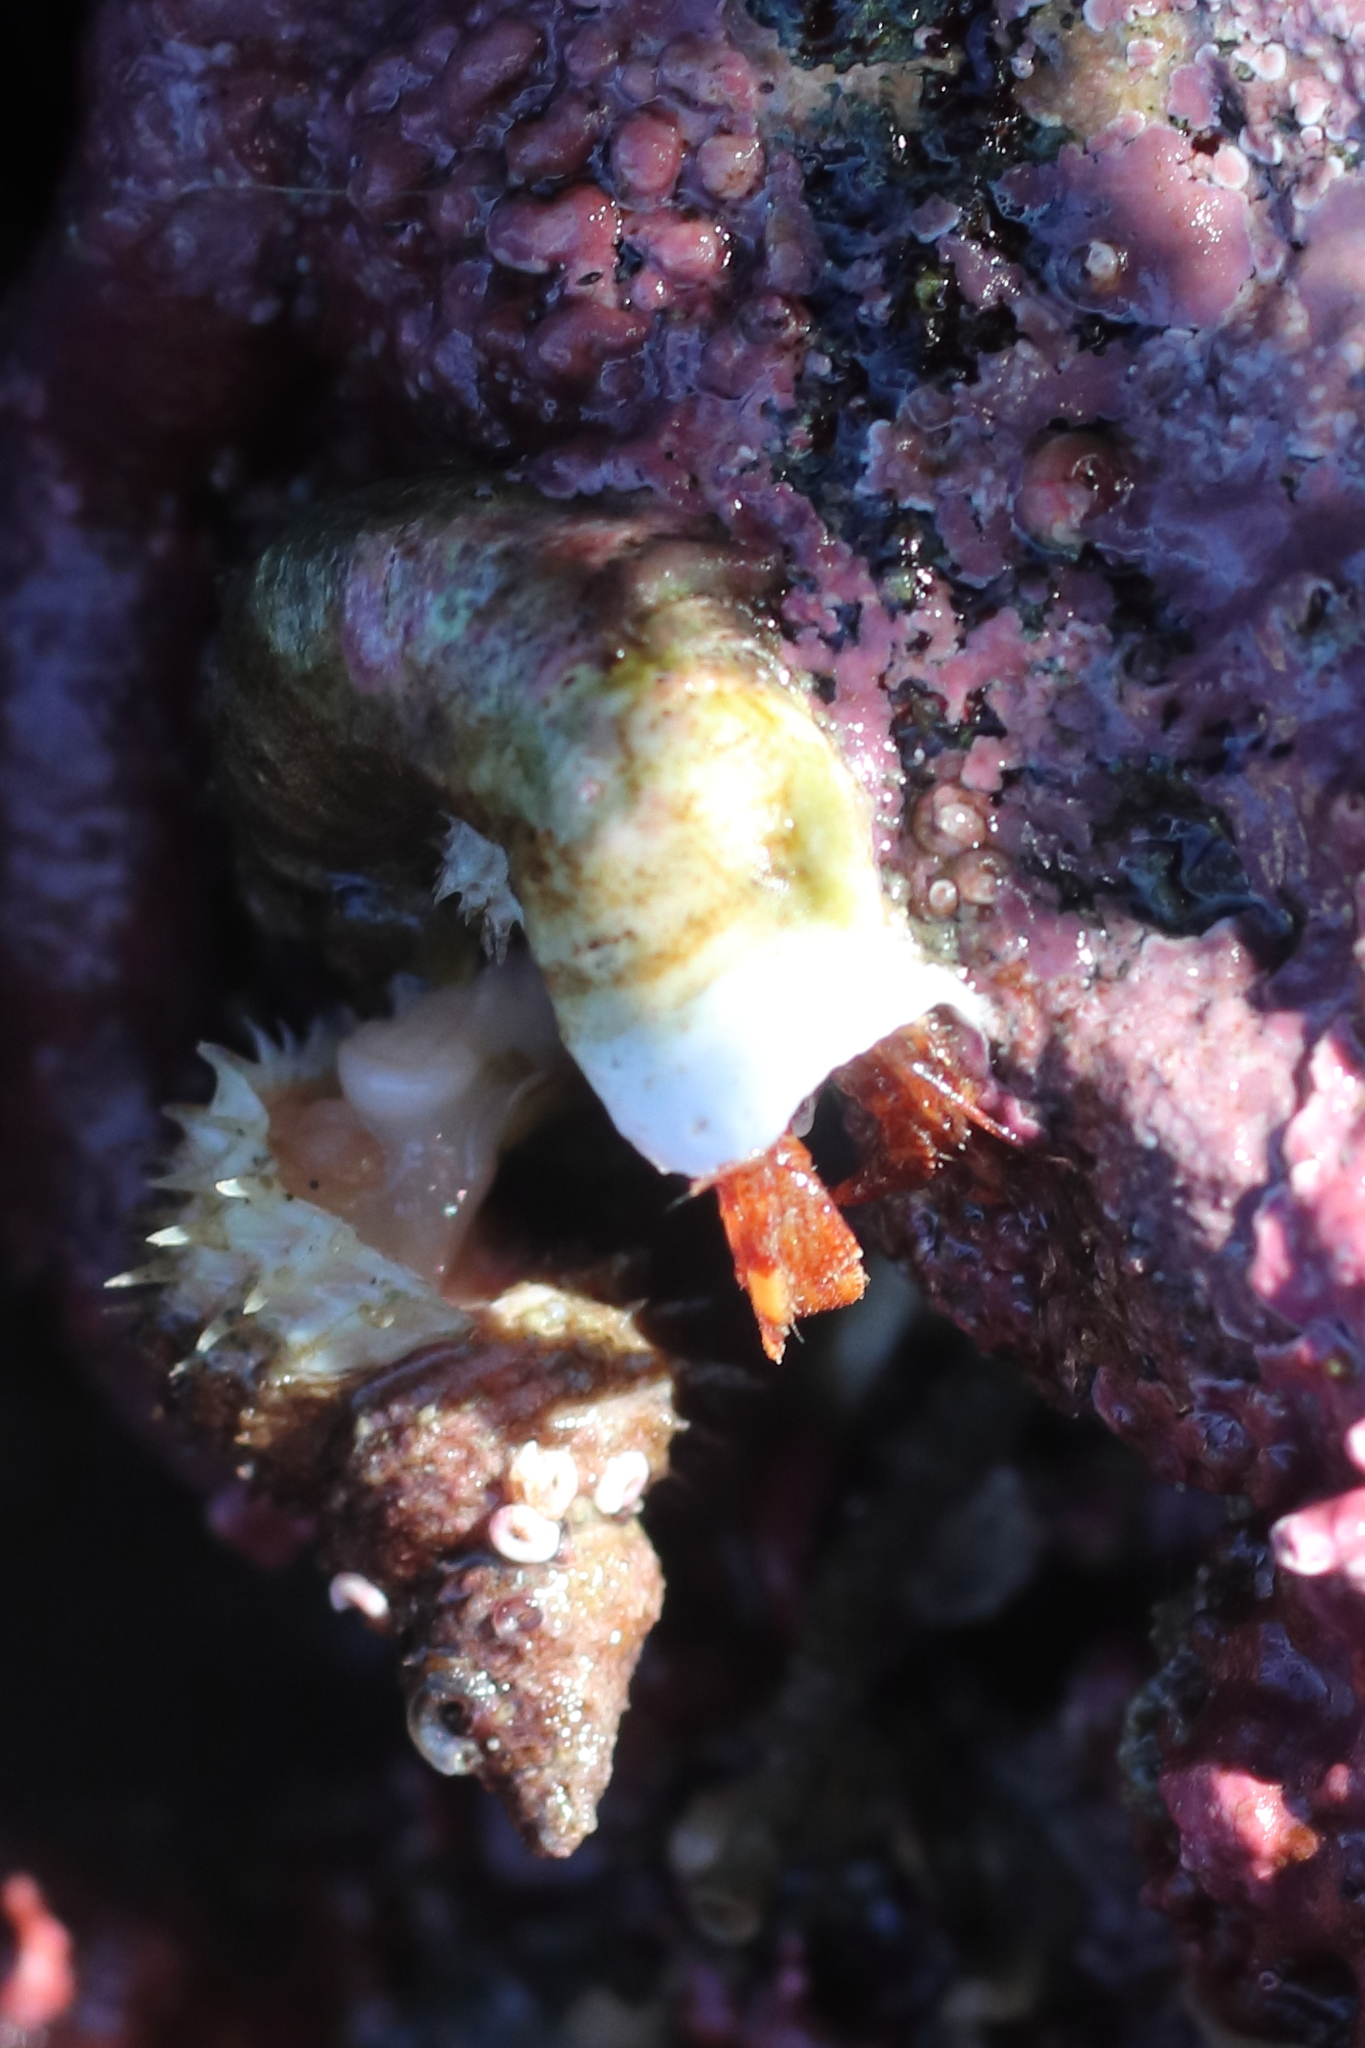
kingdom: Animalia
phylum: Arthropoda
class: Malacostraca
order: Decapoda
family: Paguridae
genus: Discorsopagurus
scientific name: Discorsopagurus schmitti
